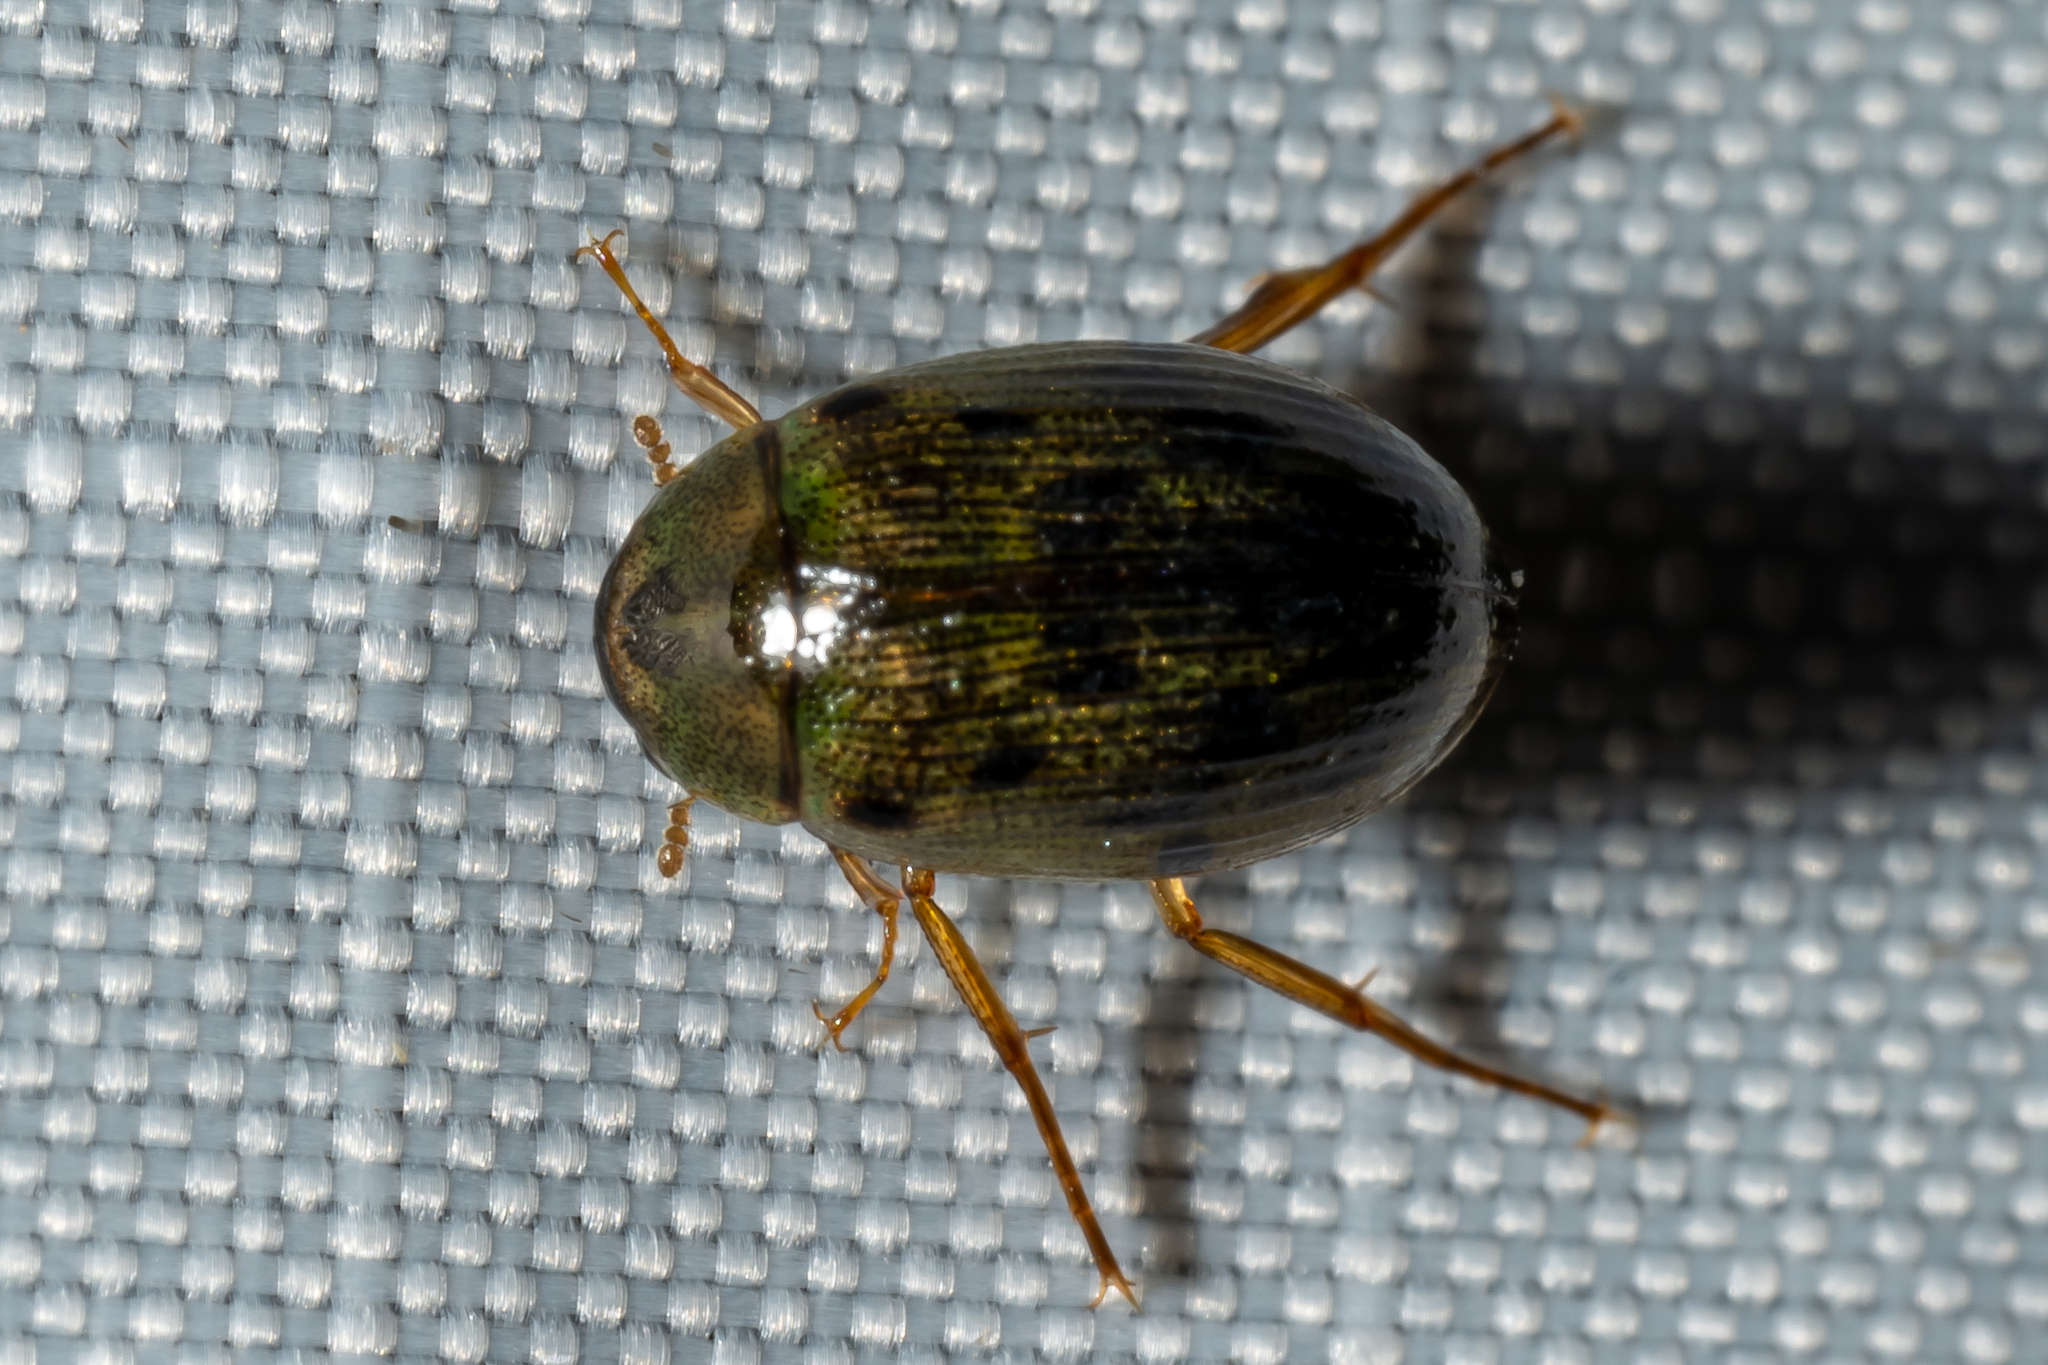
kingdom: Animalia
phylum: Arthropoda
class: Insecta
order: Coleoptera
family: Hydrophilidae
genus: Berosus
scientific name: Berosus
